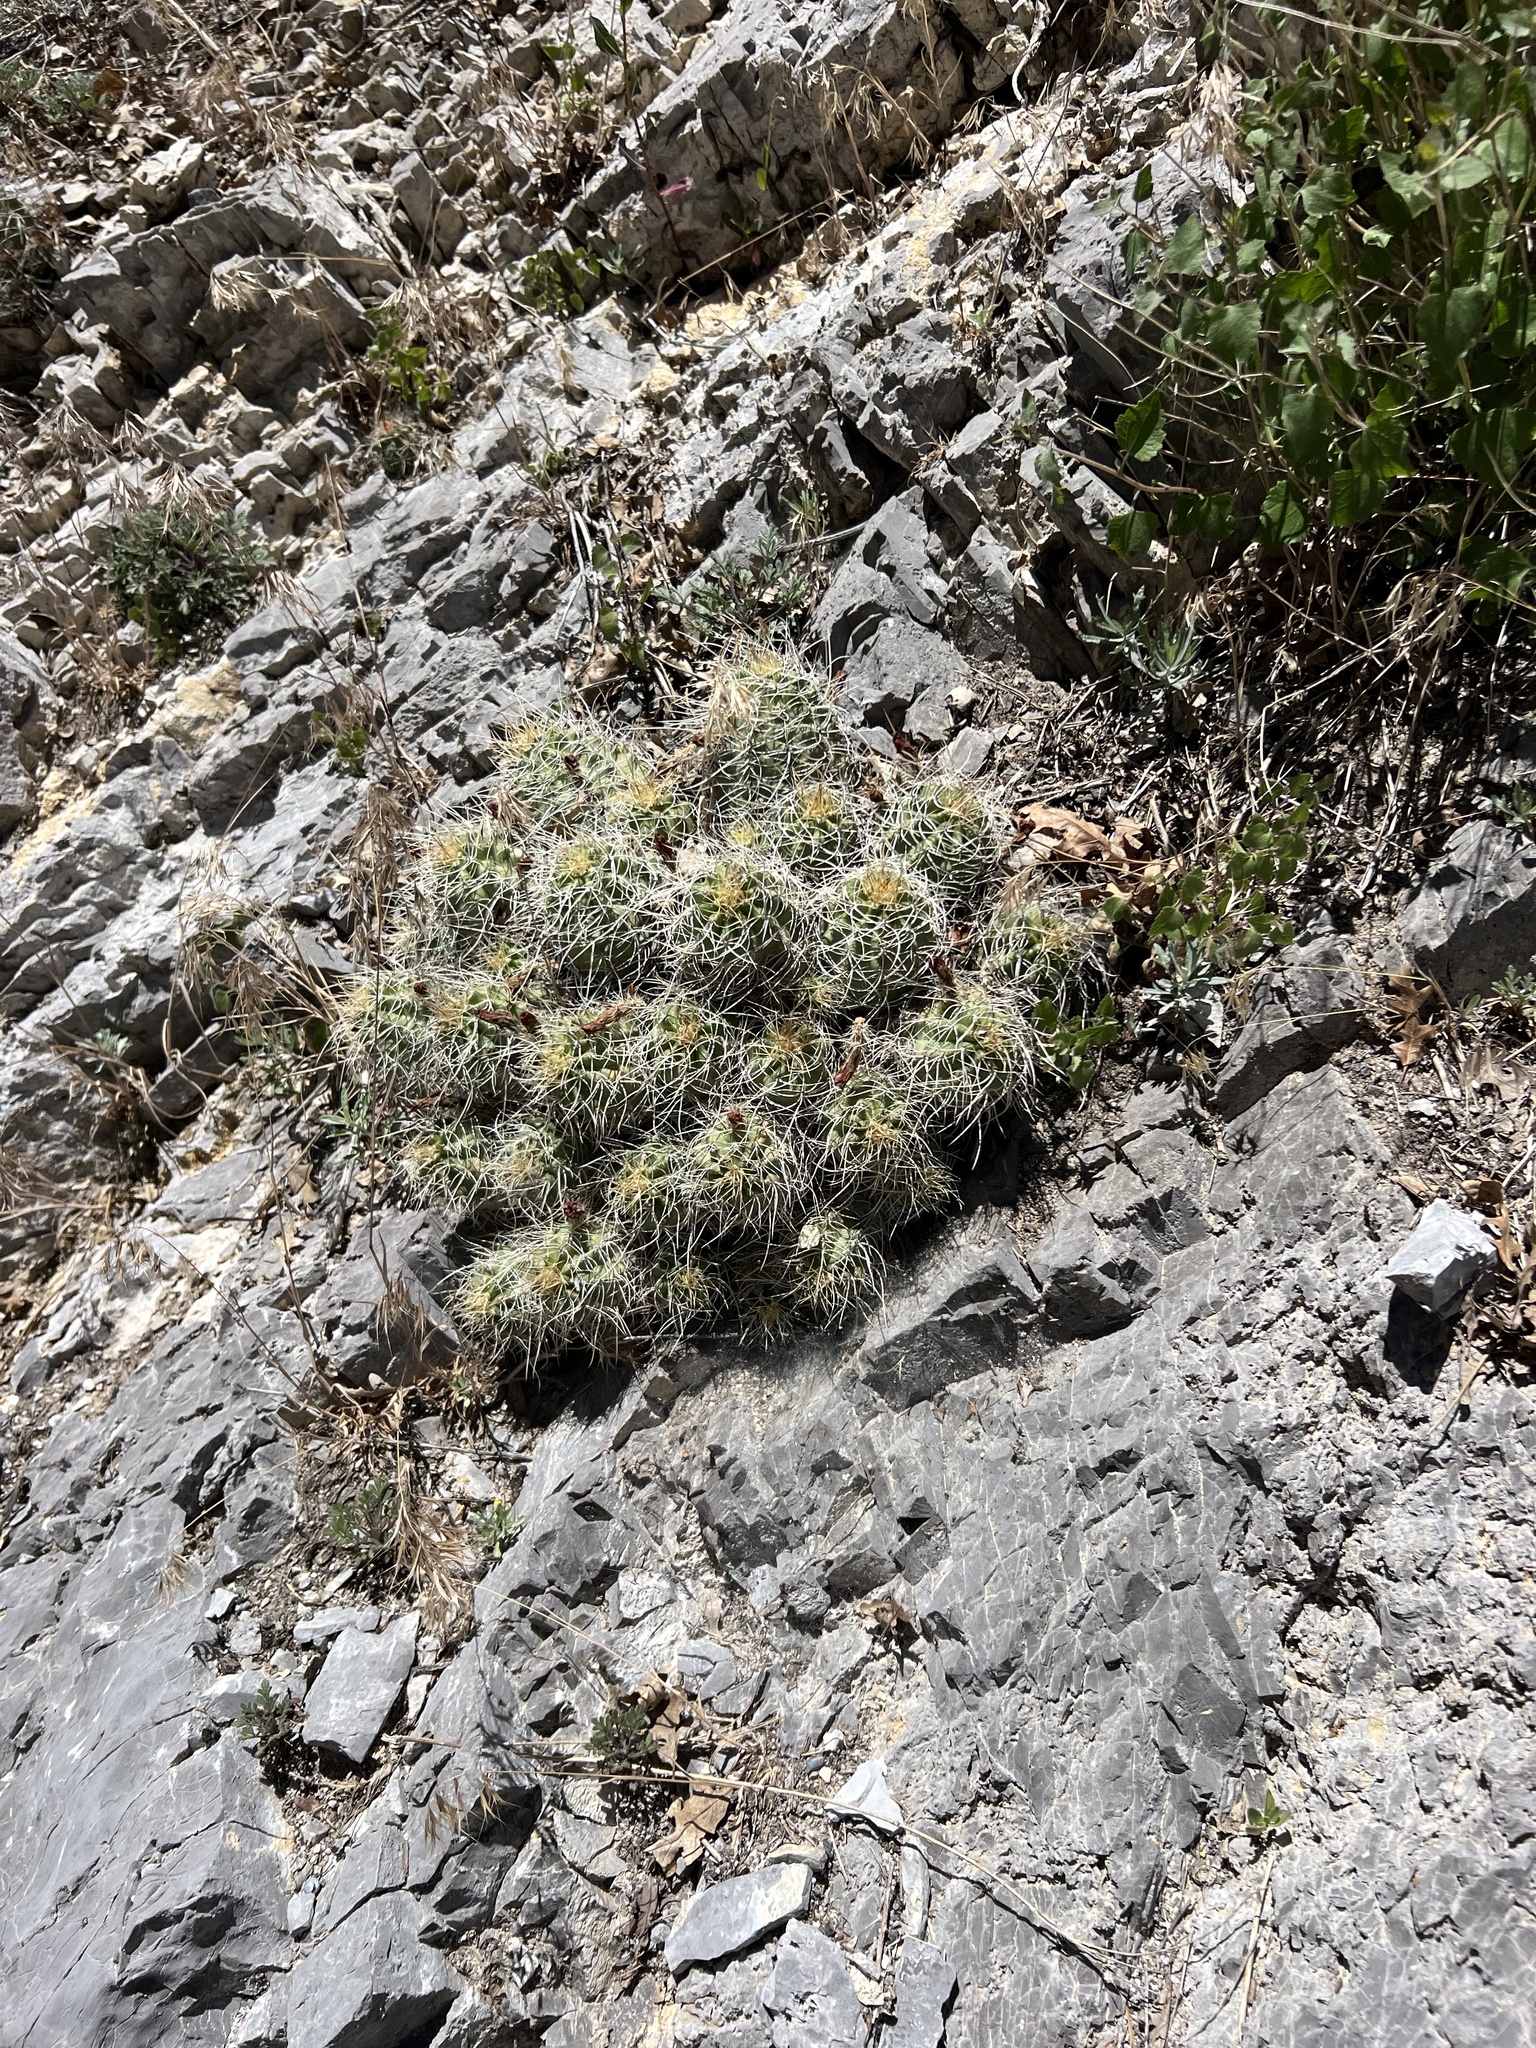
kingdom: Plantae
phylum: Tracheophyta
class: Magnoliopsida
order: Caryophyllales
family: Cactaceae
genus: Echinocereus
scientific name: Echinocereus triglochidiatus
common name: Claretcup hedgehog
